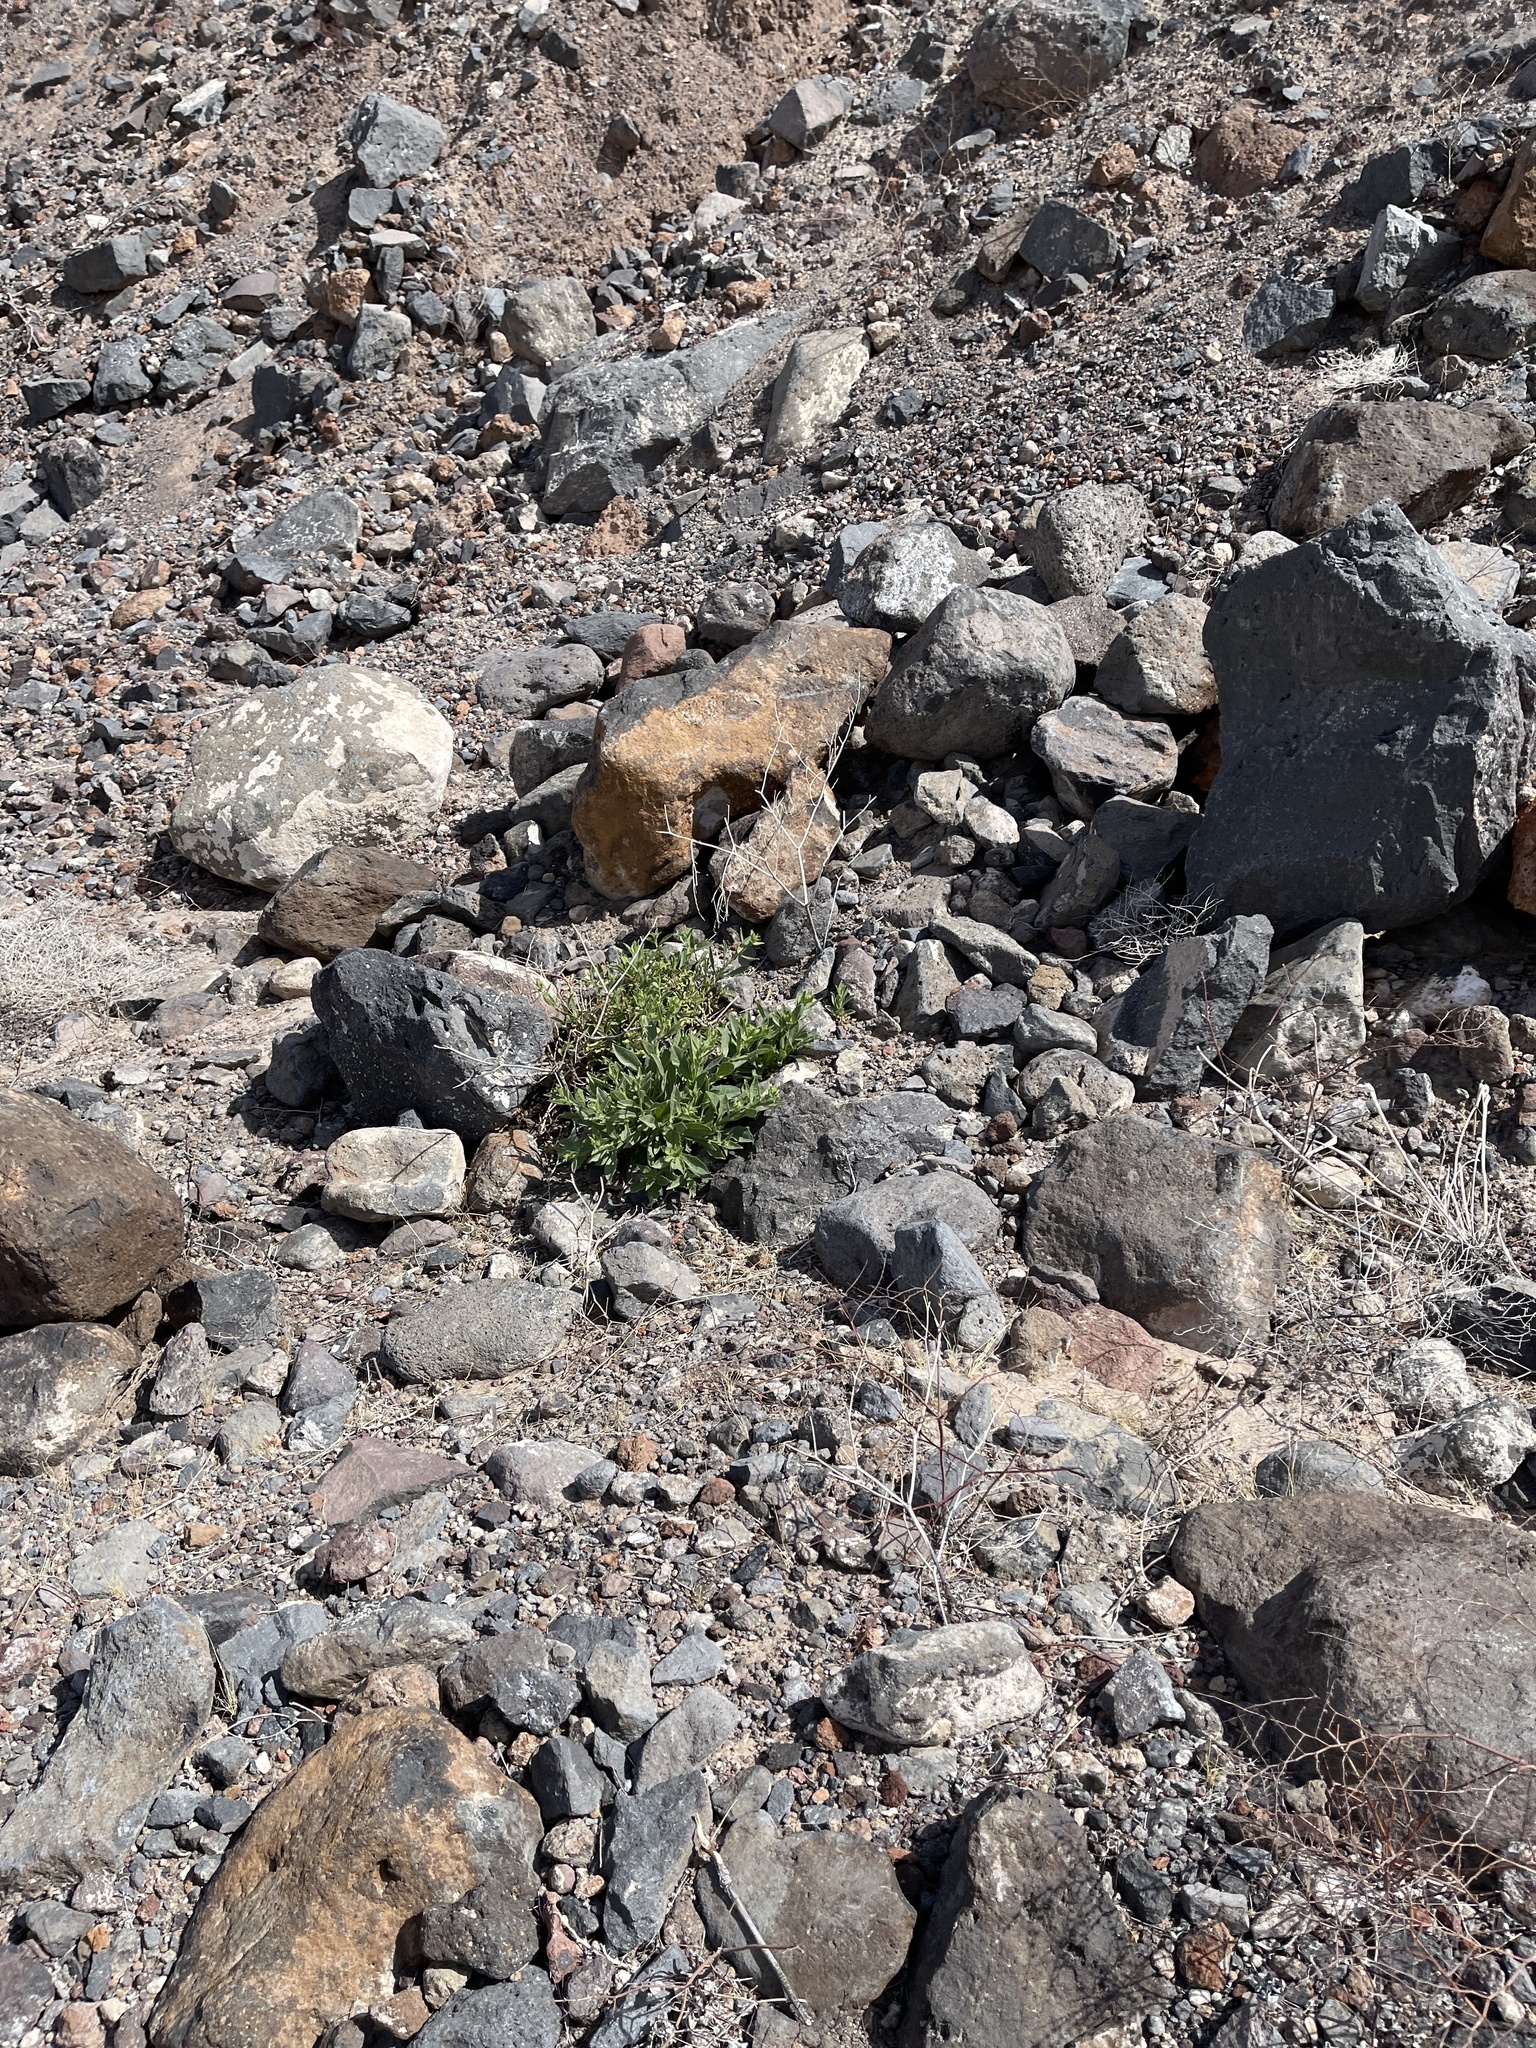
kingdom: Plantae
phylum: Tracheophyta
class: Magnoliopsida
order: Solanales
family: Solanaceae
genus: Nicotiana
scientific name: Nicotiana obtusifolia
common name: Desert tobacco
